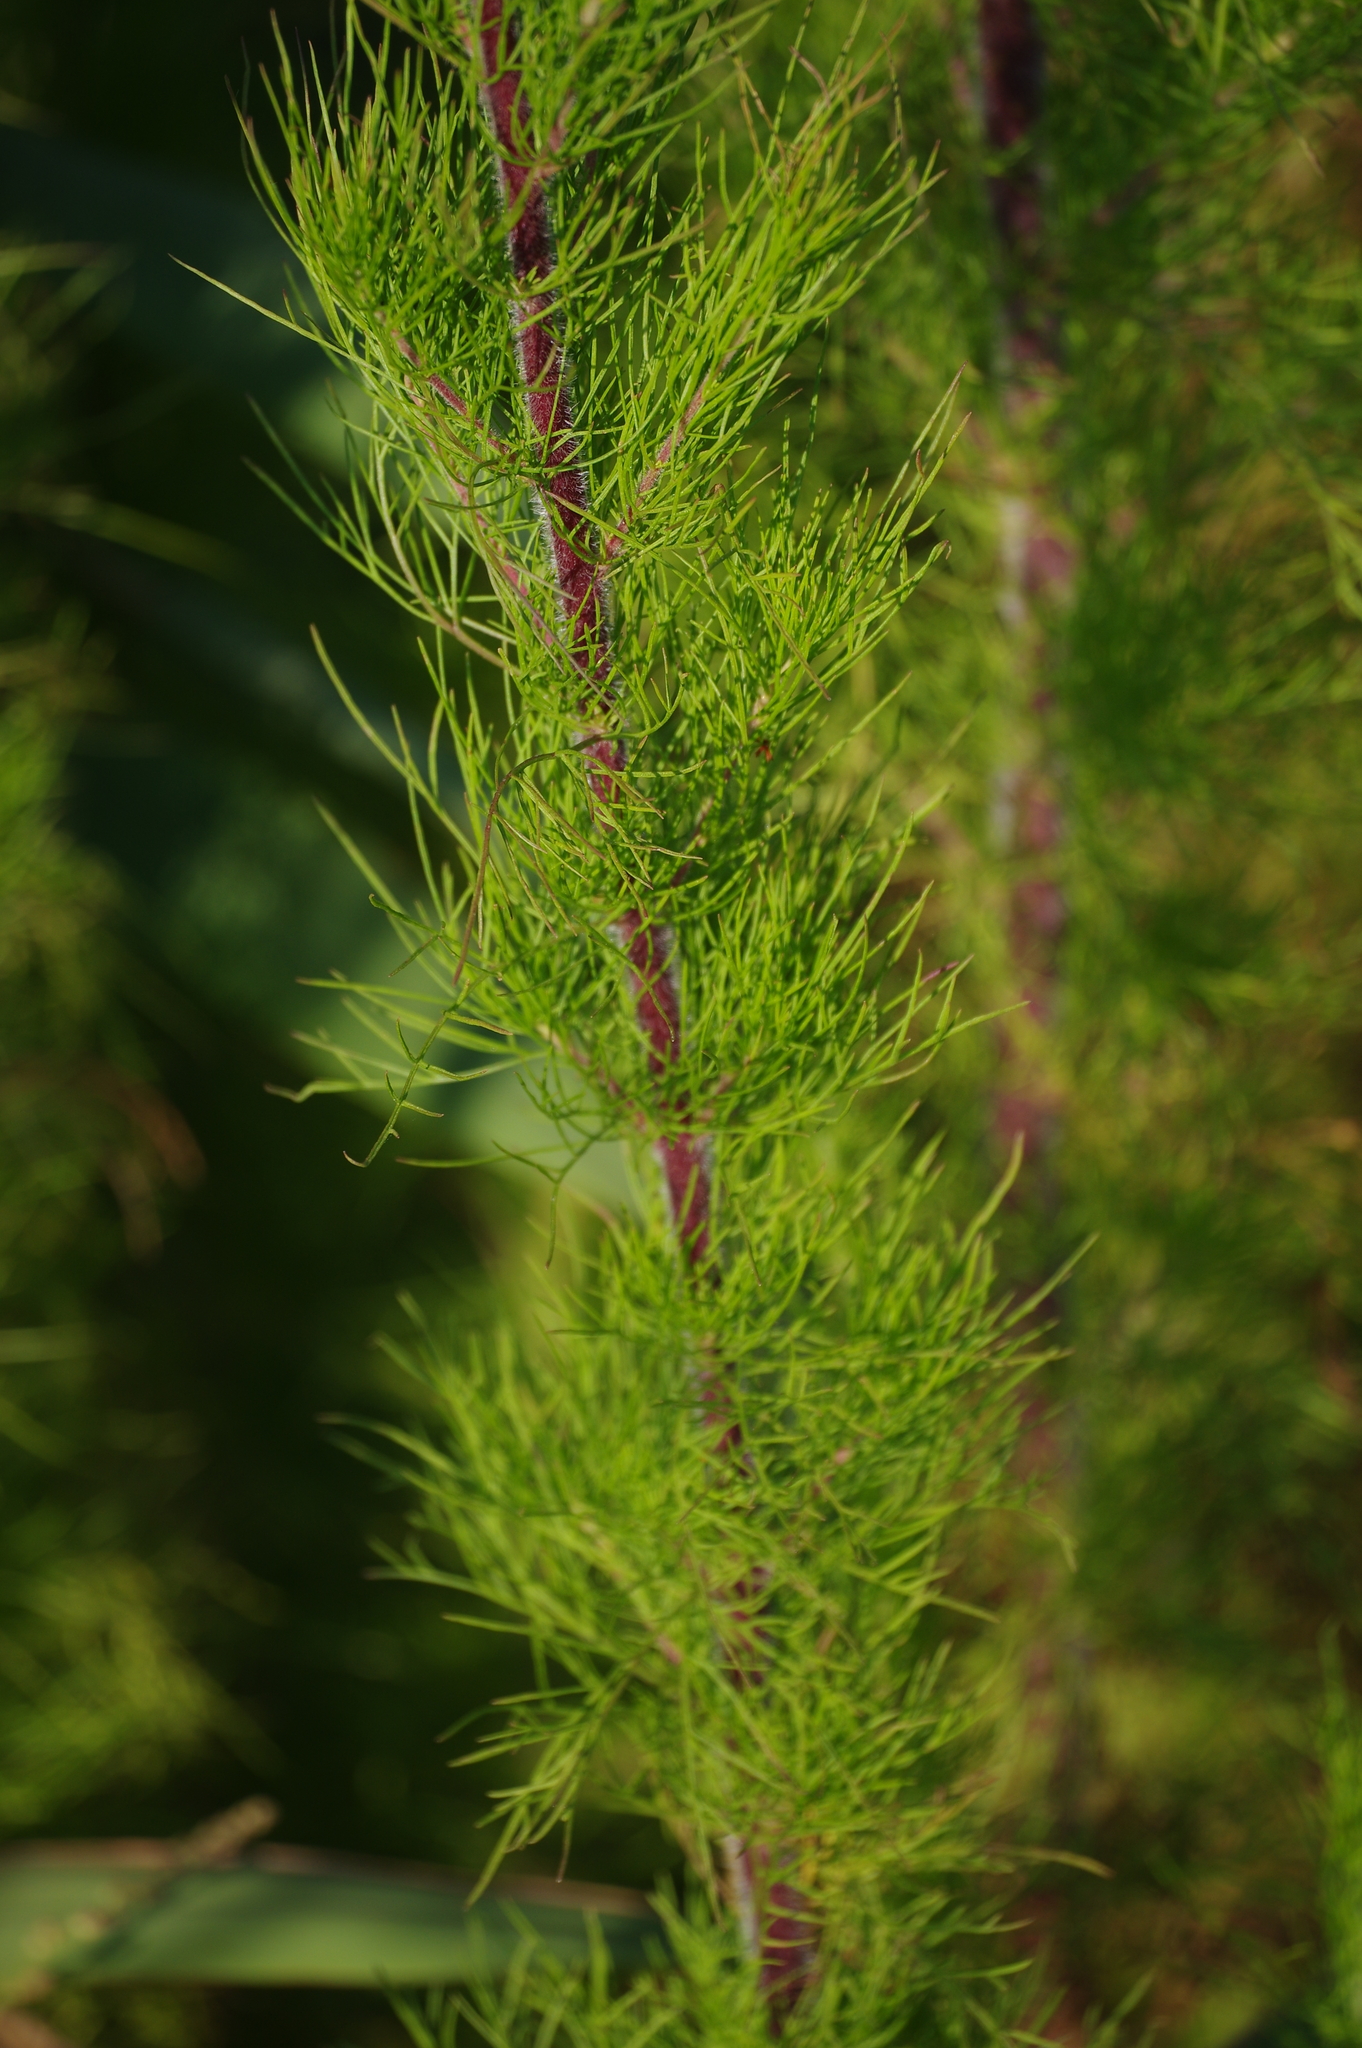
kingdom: Plantae
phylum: Tracheophyta
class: Magnoliopsida
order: Asterales
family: Asteraceae
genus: Eupatorium
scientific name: Eupatorium capillifolium
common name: Dog-fennel
